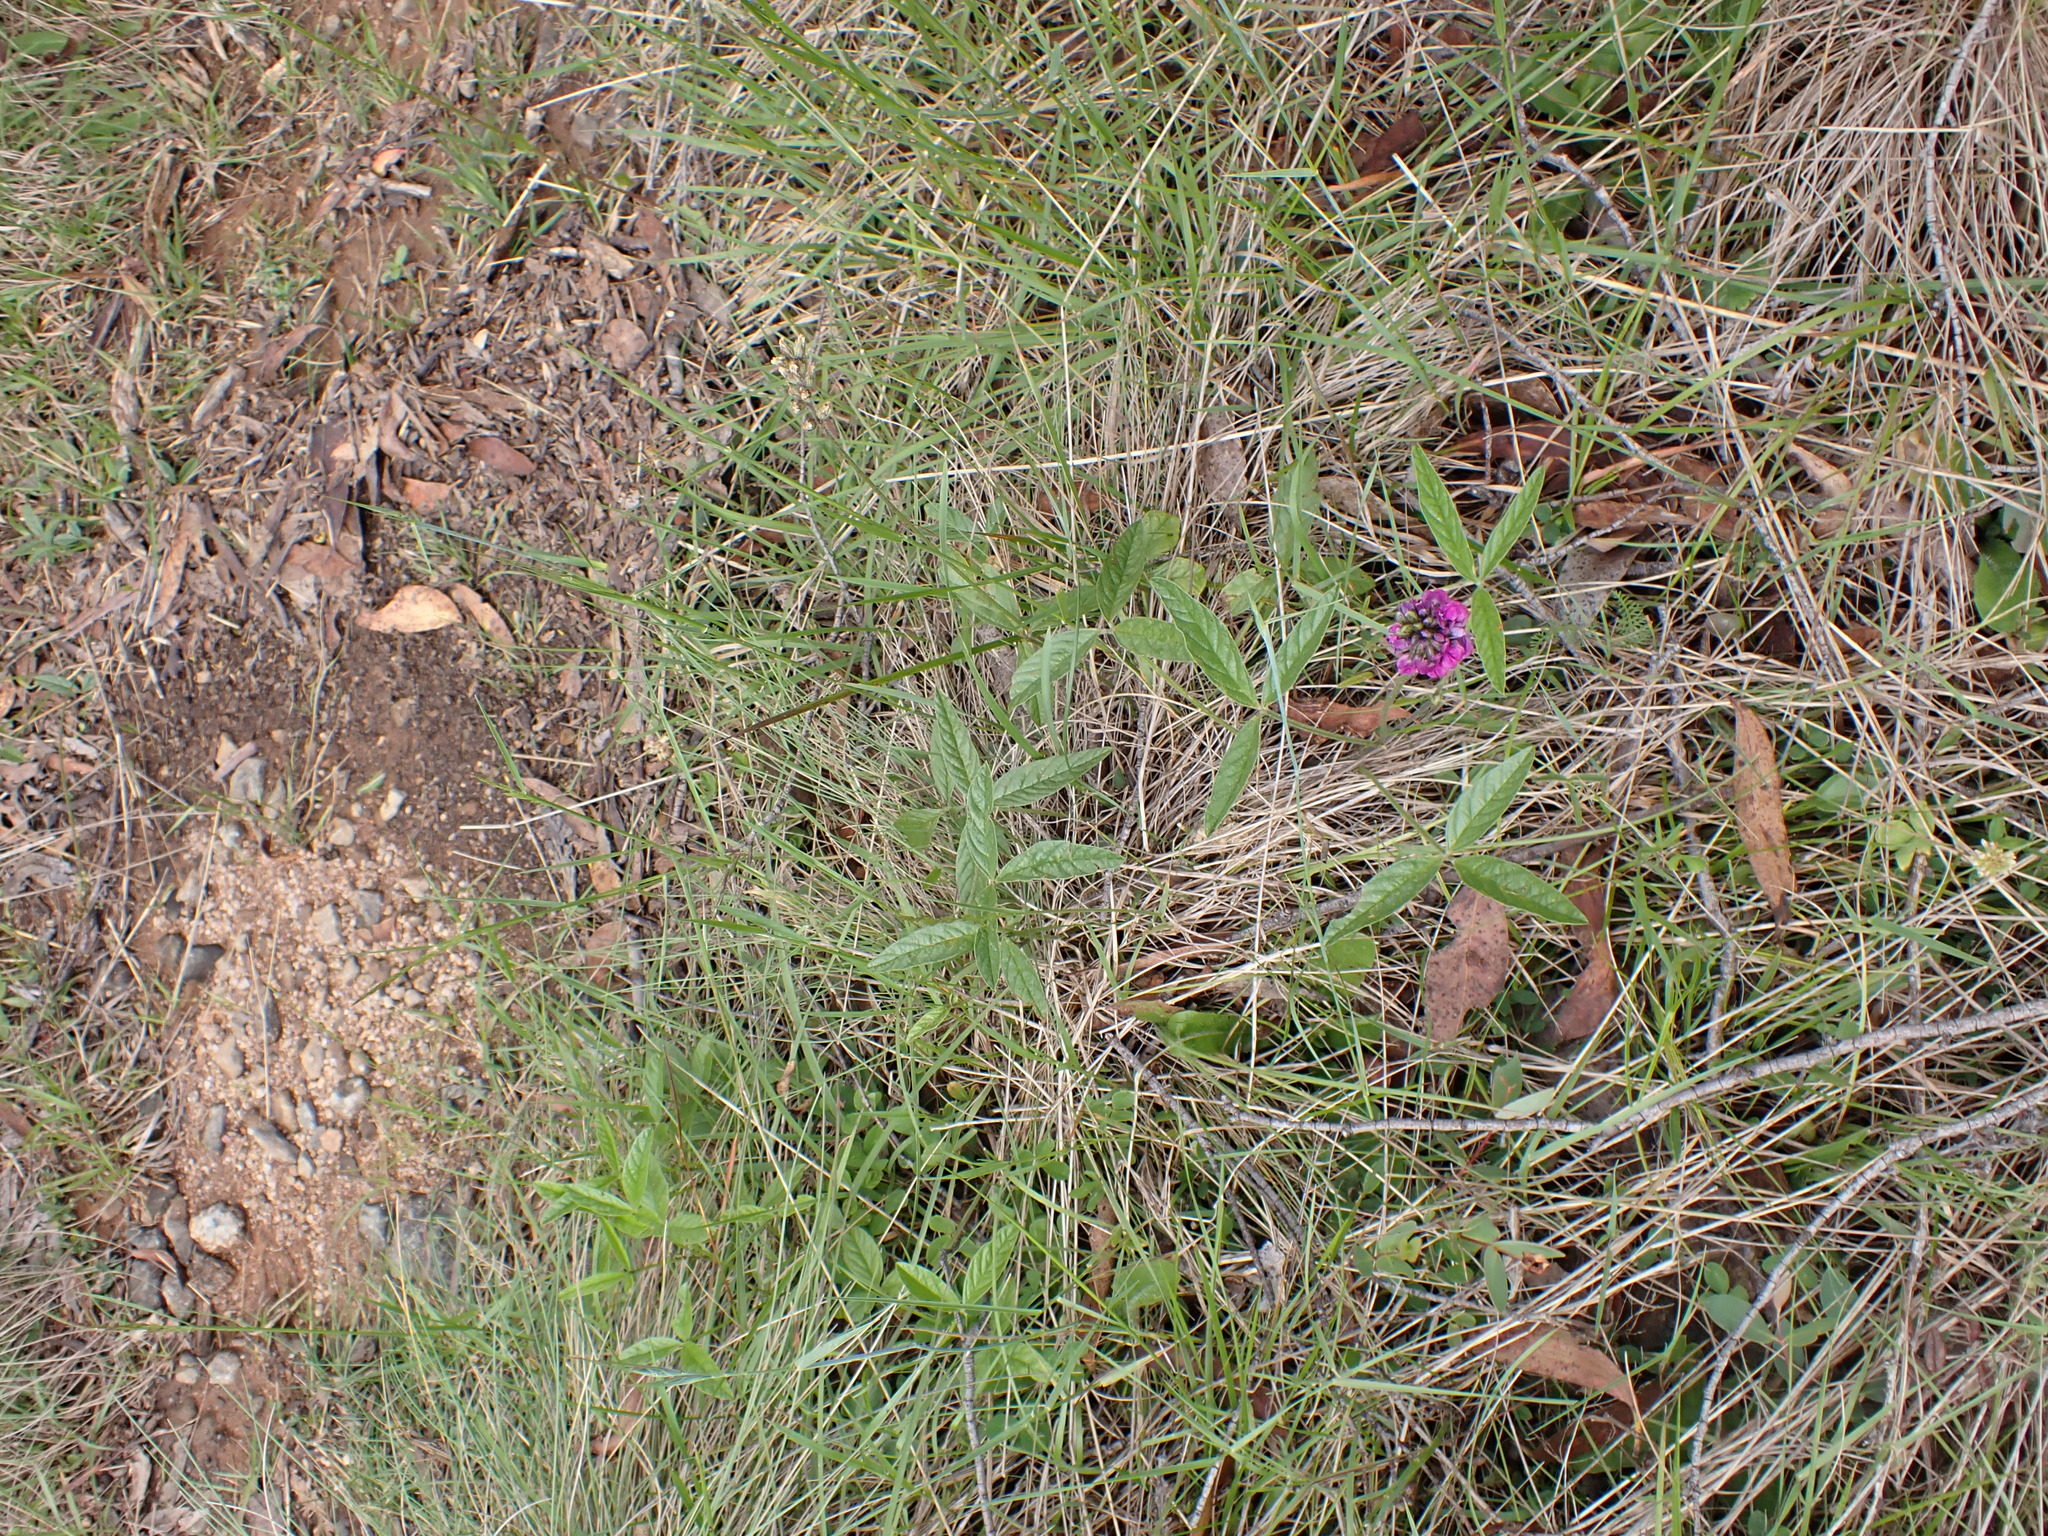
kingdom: Plantae
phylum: Tracheophyta
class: Magnoliopsida
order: Fabales
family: Fabaceae
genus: Cullen
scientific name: Cullen microcephalum
